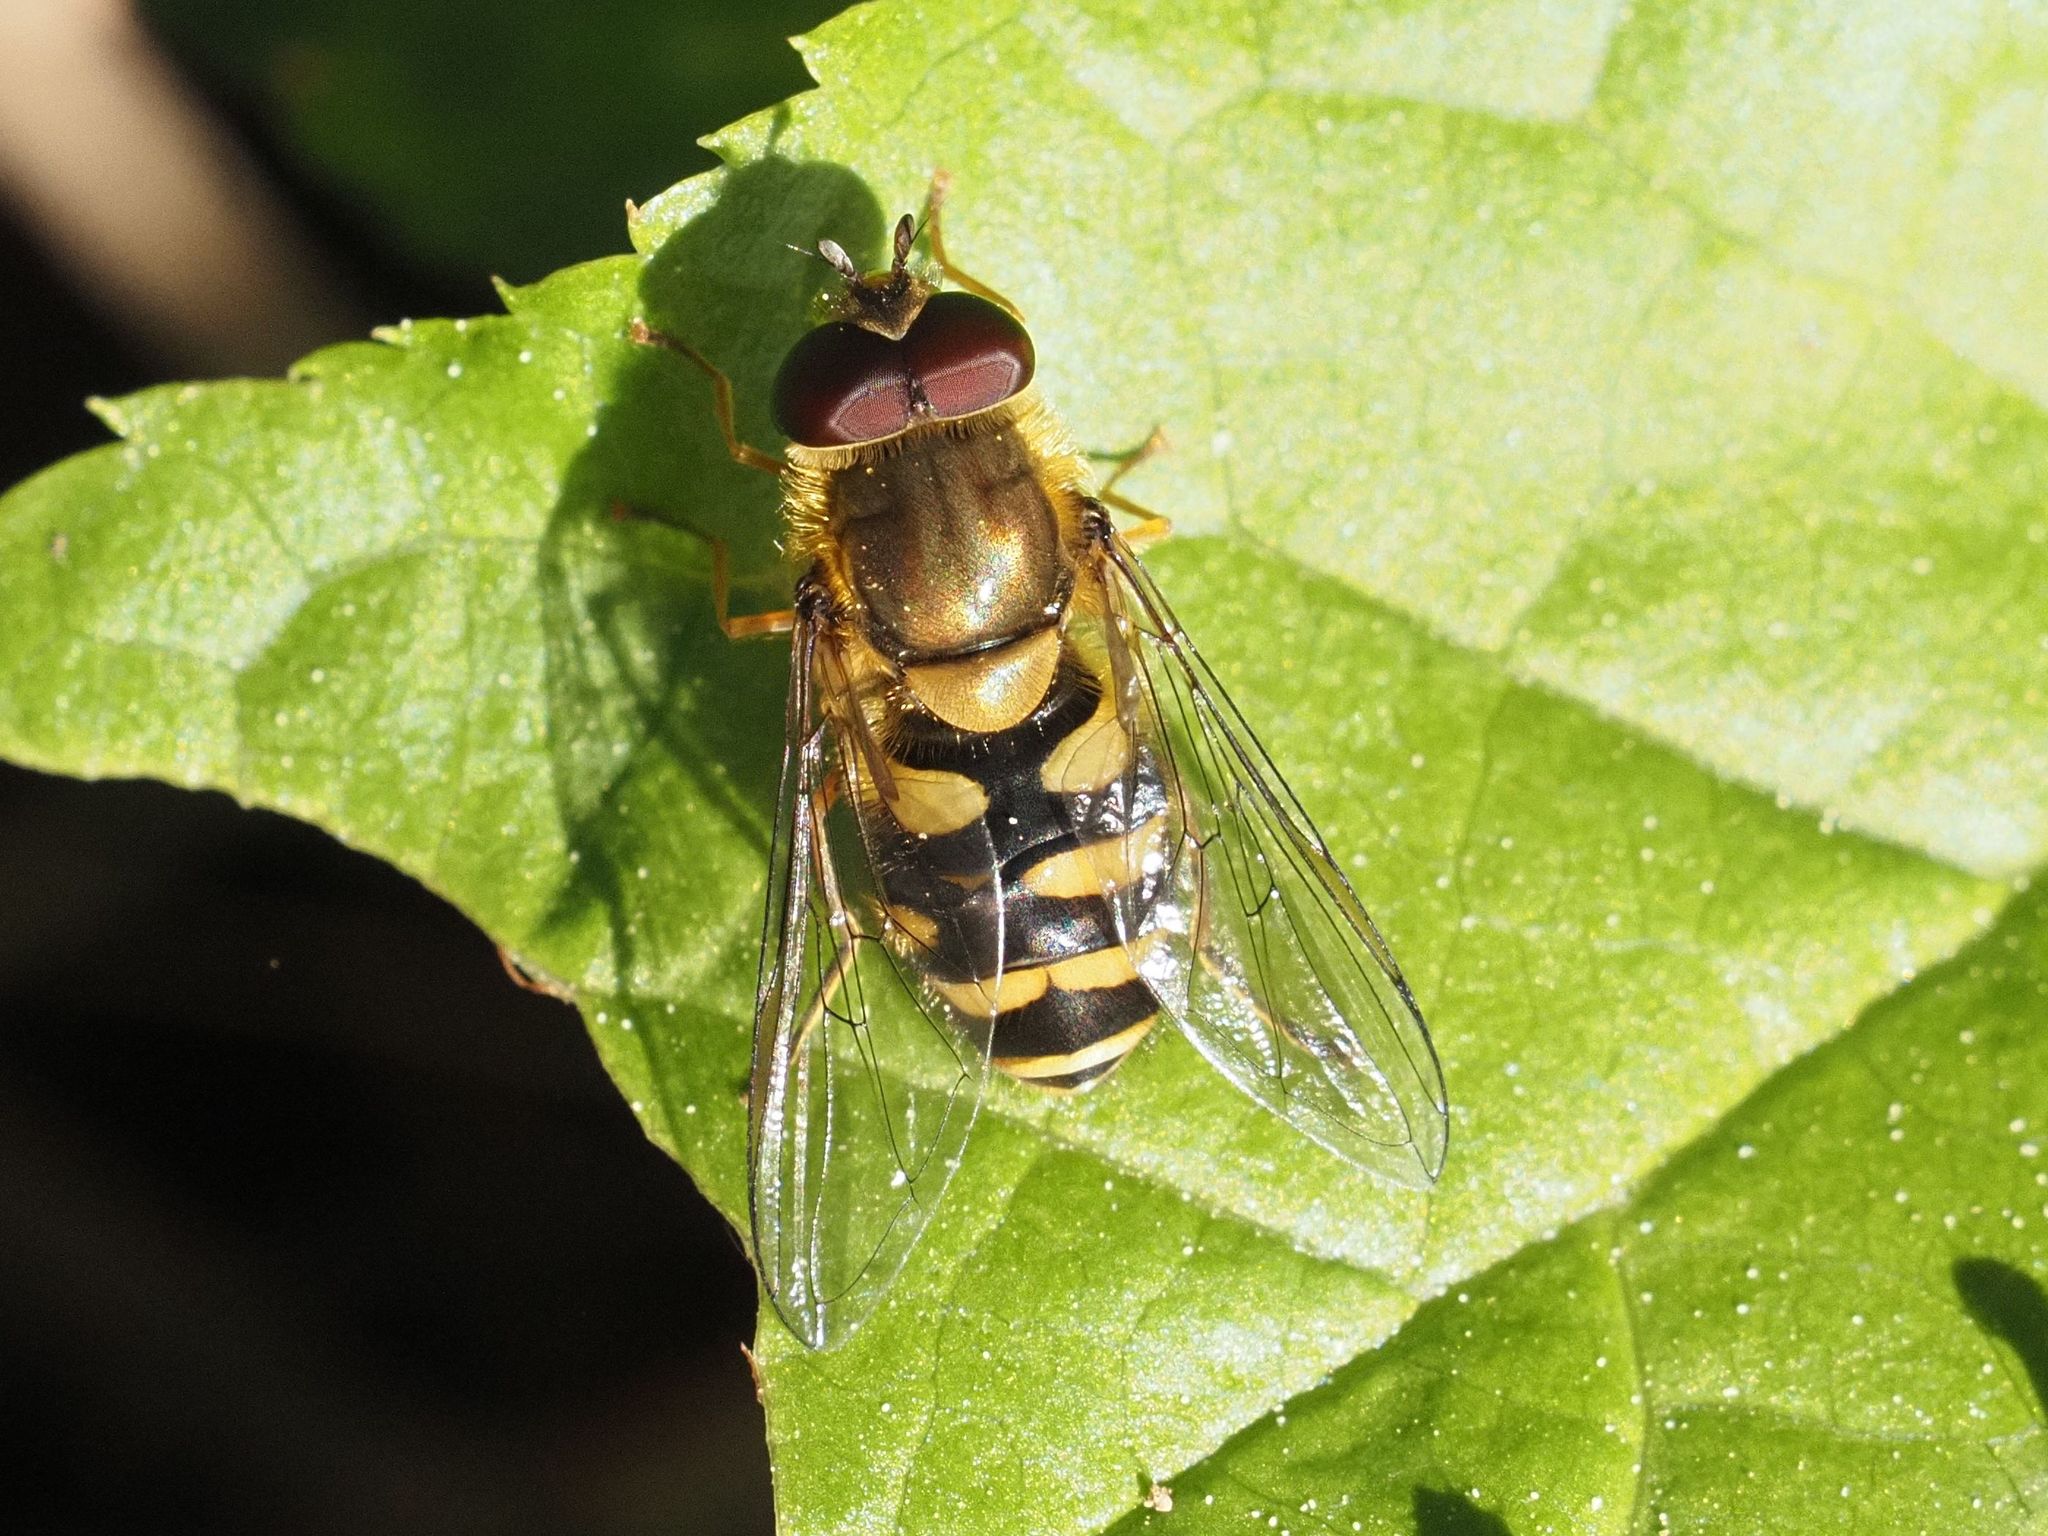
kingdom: Animalia
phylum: Arthropoda
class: Insecta
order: Diptera
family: Syrphidae
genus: Syrphus
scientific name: Syrphus
